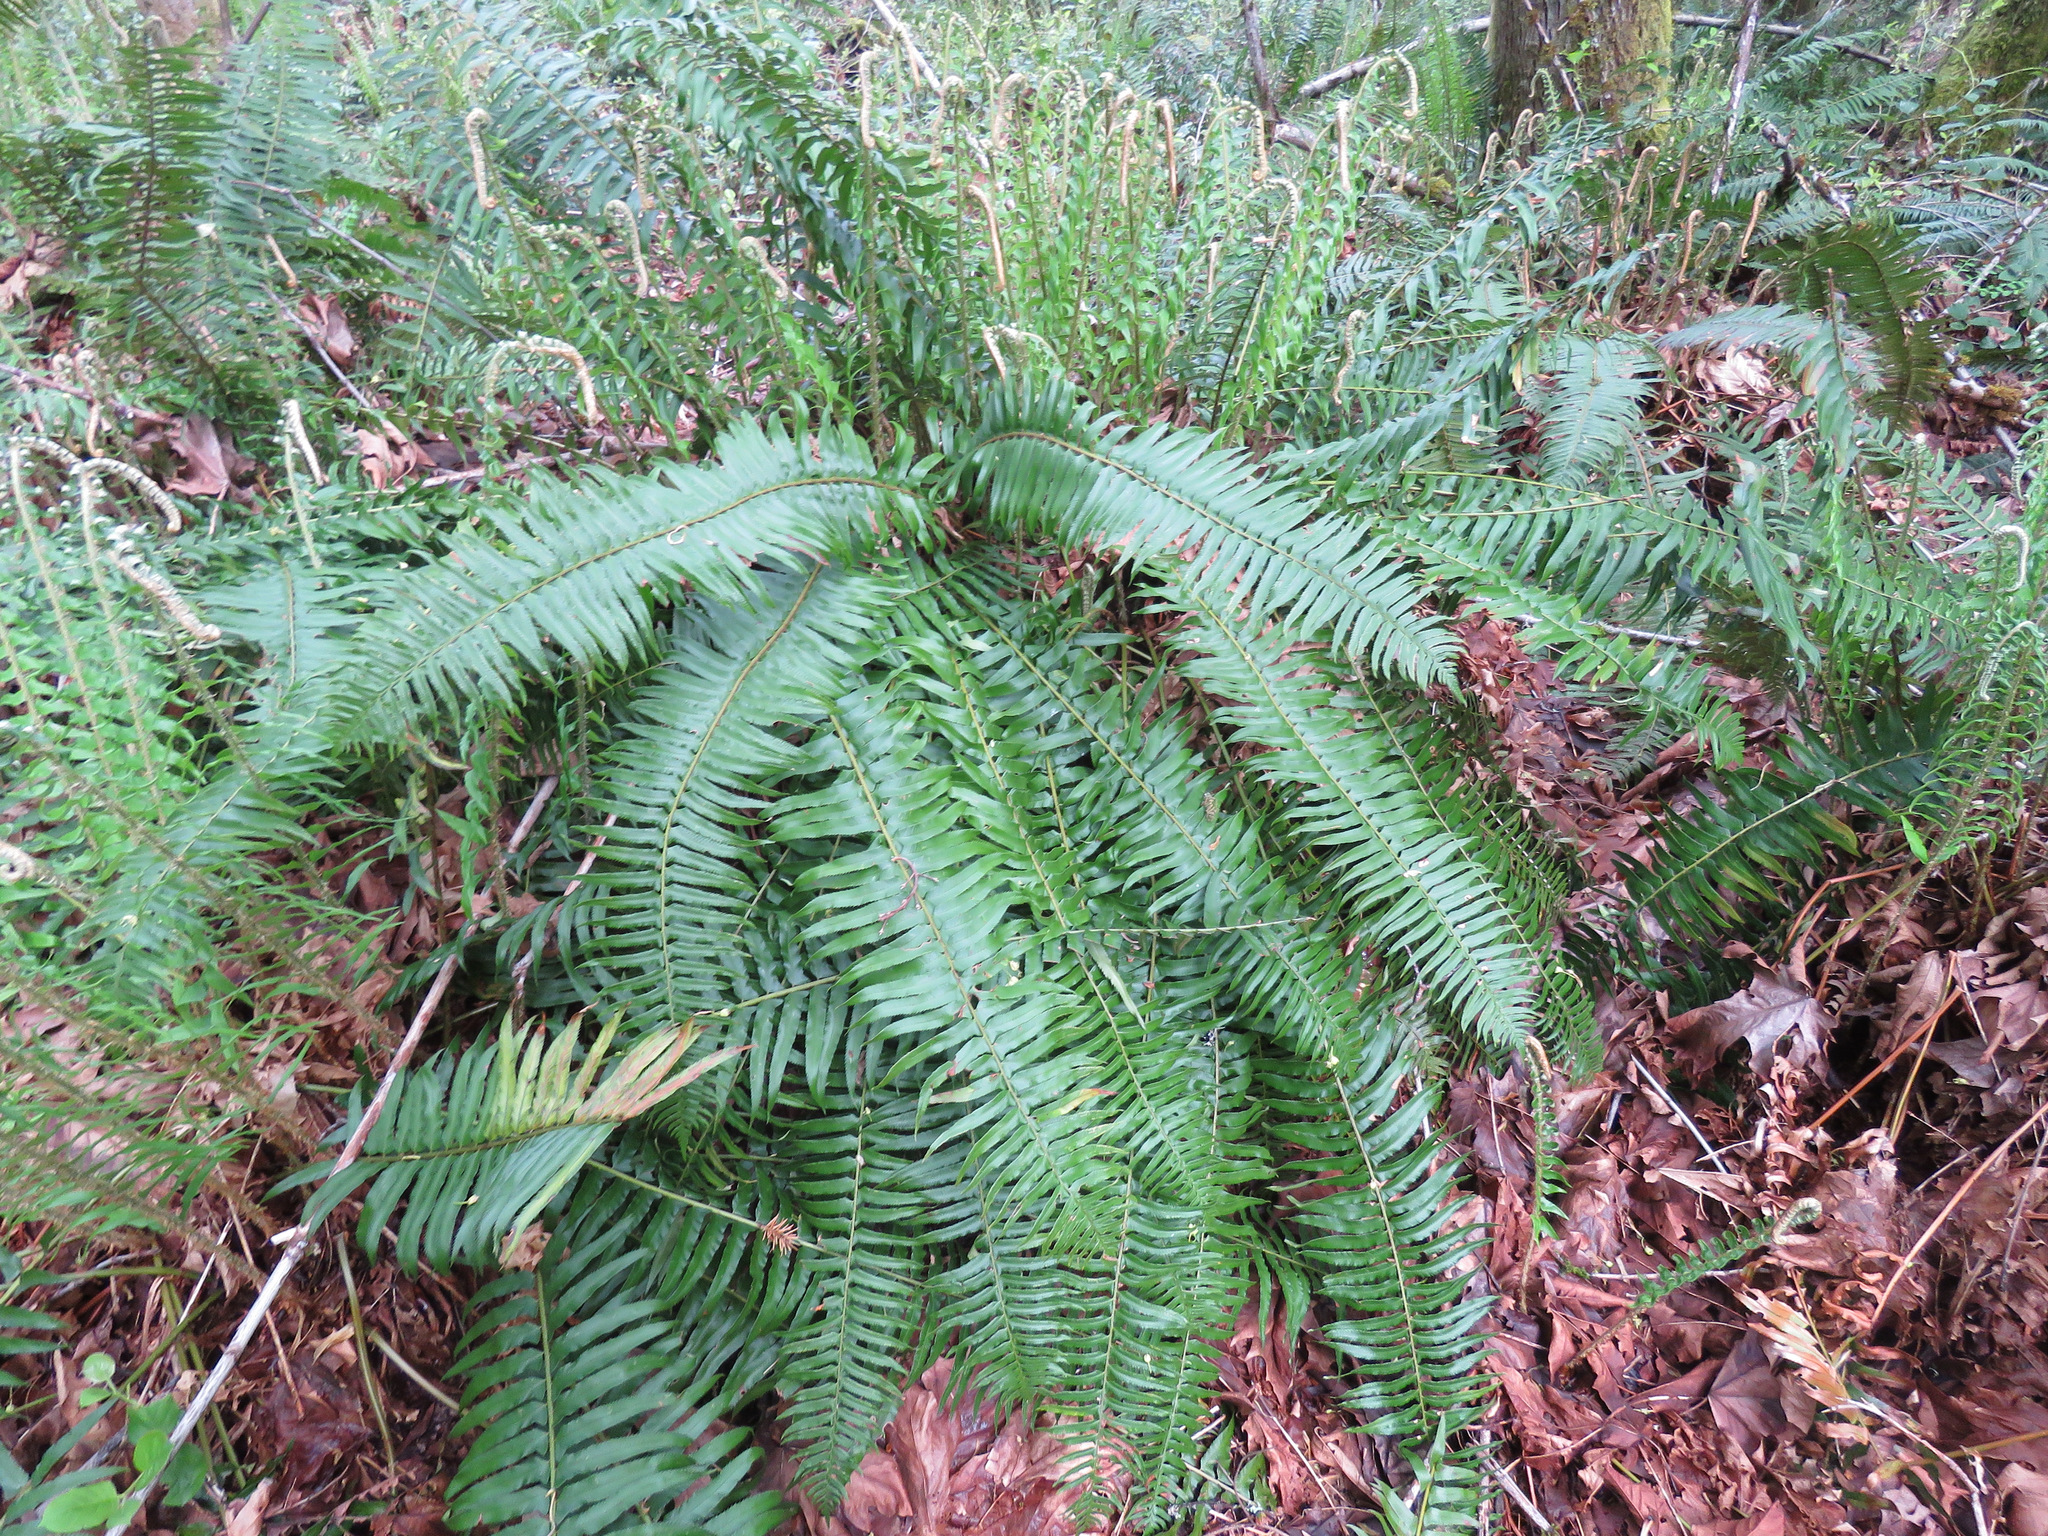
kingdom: Plantae
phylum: Tracheophyta
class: Polypodiopsida
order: Polypodiales
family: Dryopteridaceae
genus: Polystichum
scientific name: Polystichum munitum
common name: Western sword-fern
